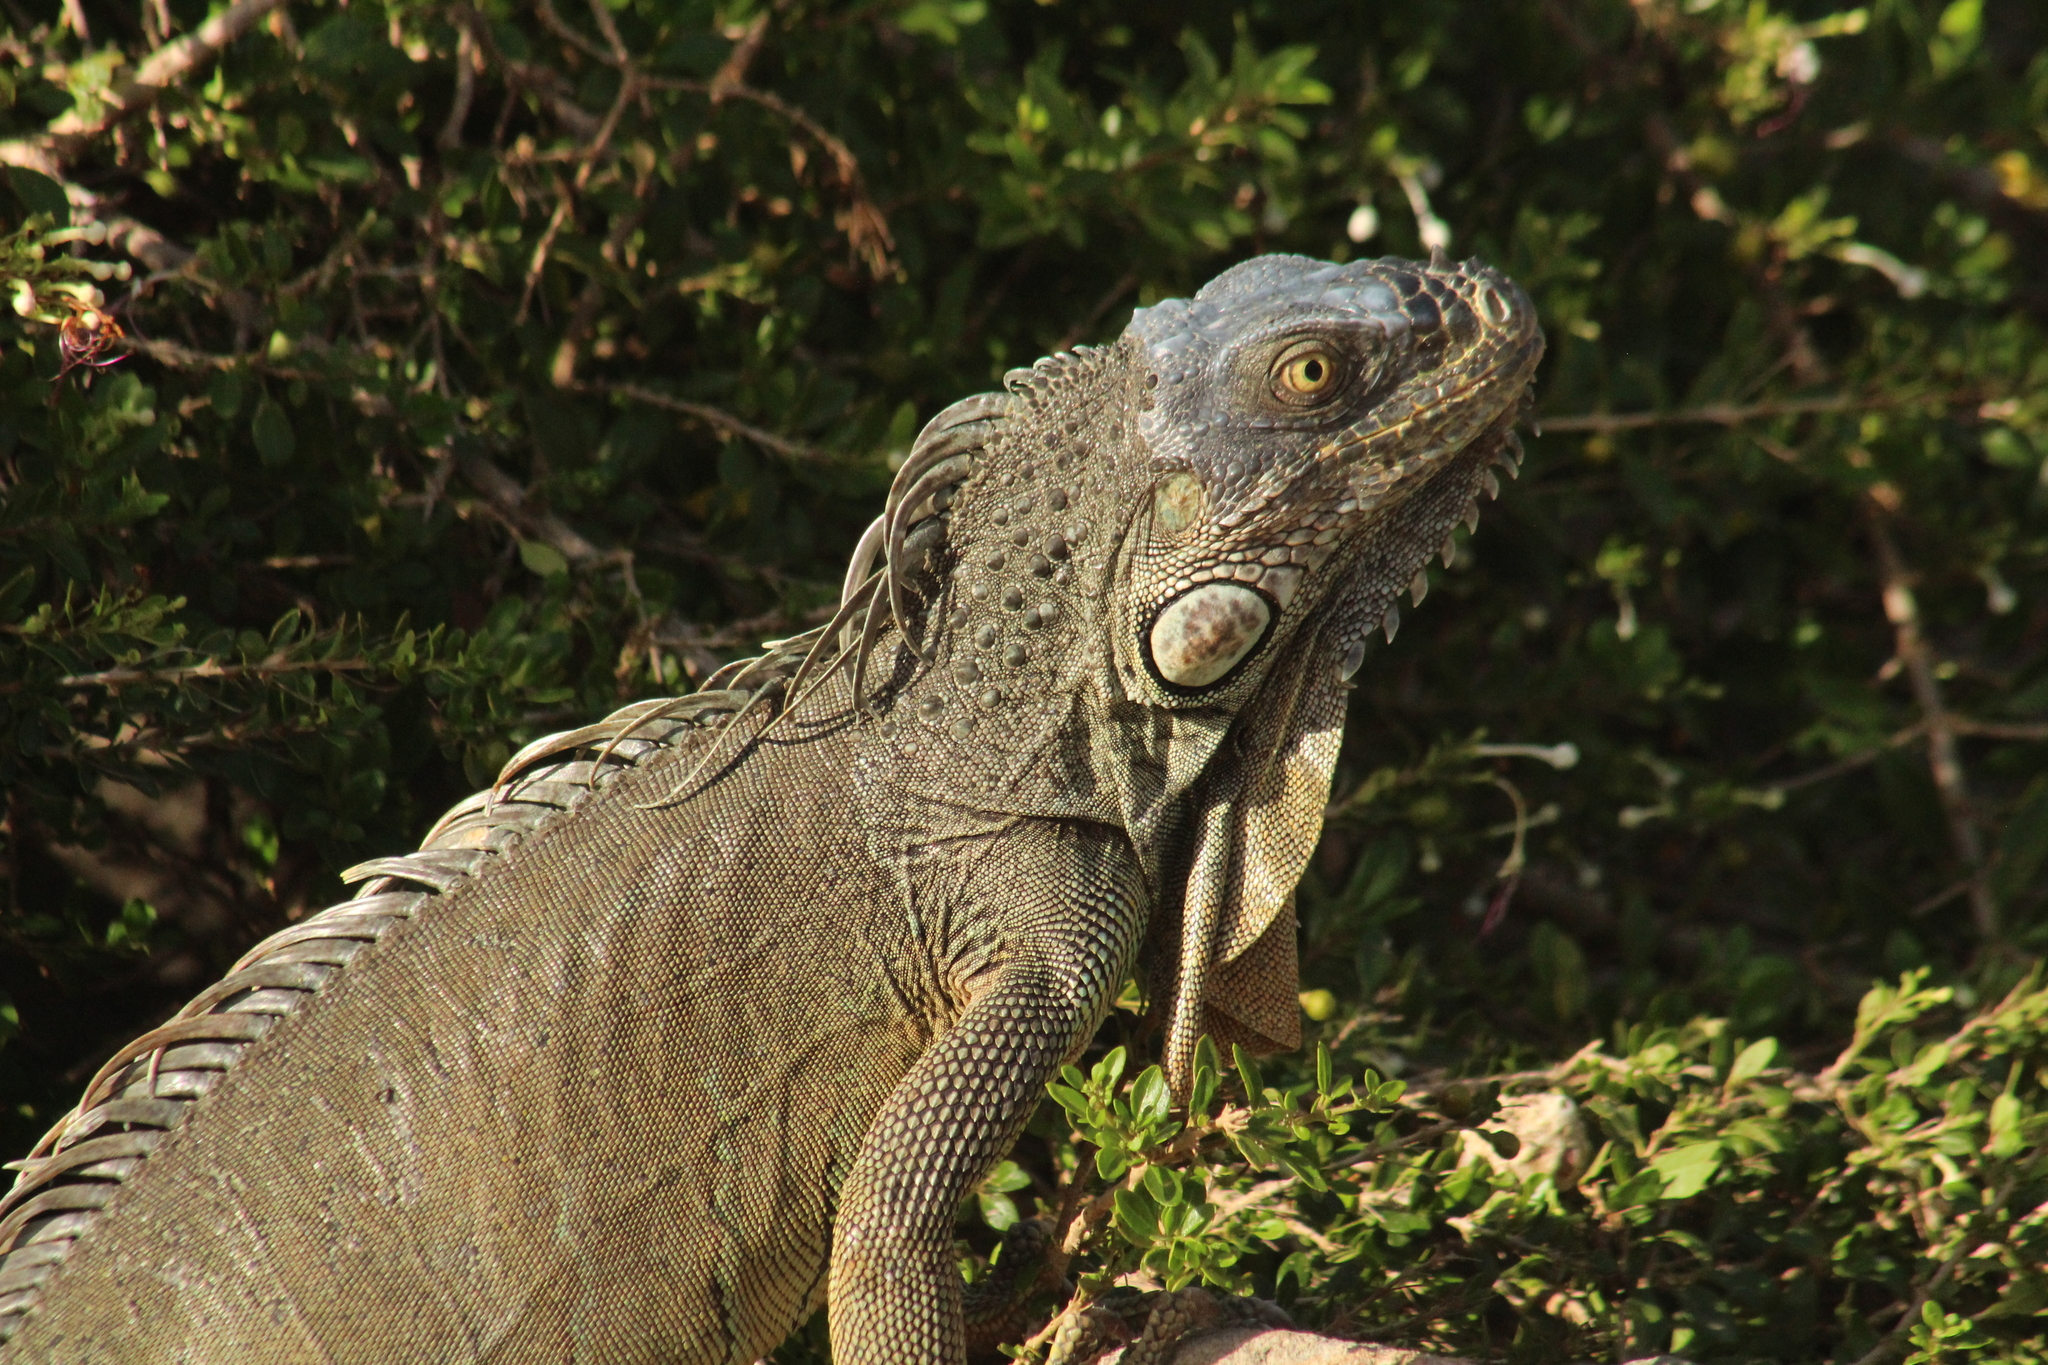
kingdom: Animalia
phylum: Chordata
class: Squamata
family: Iguanidae
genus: Iguana
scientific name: Iguana iguana
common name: Green iguana
